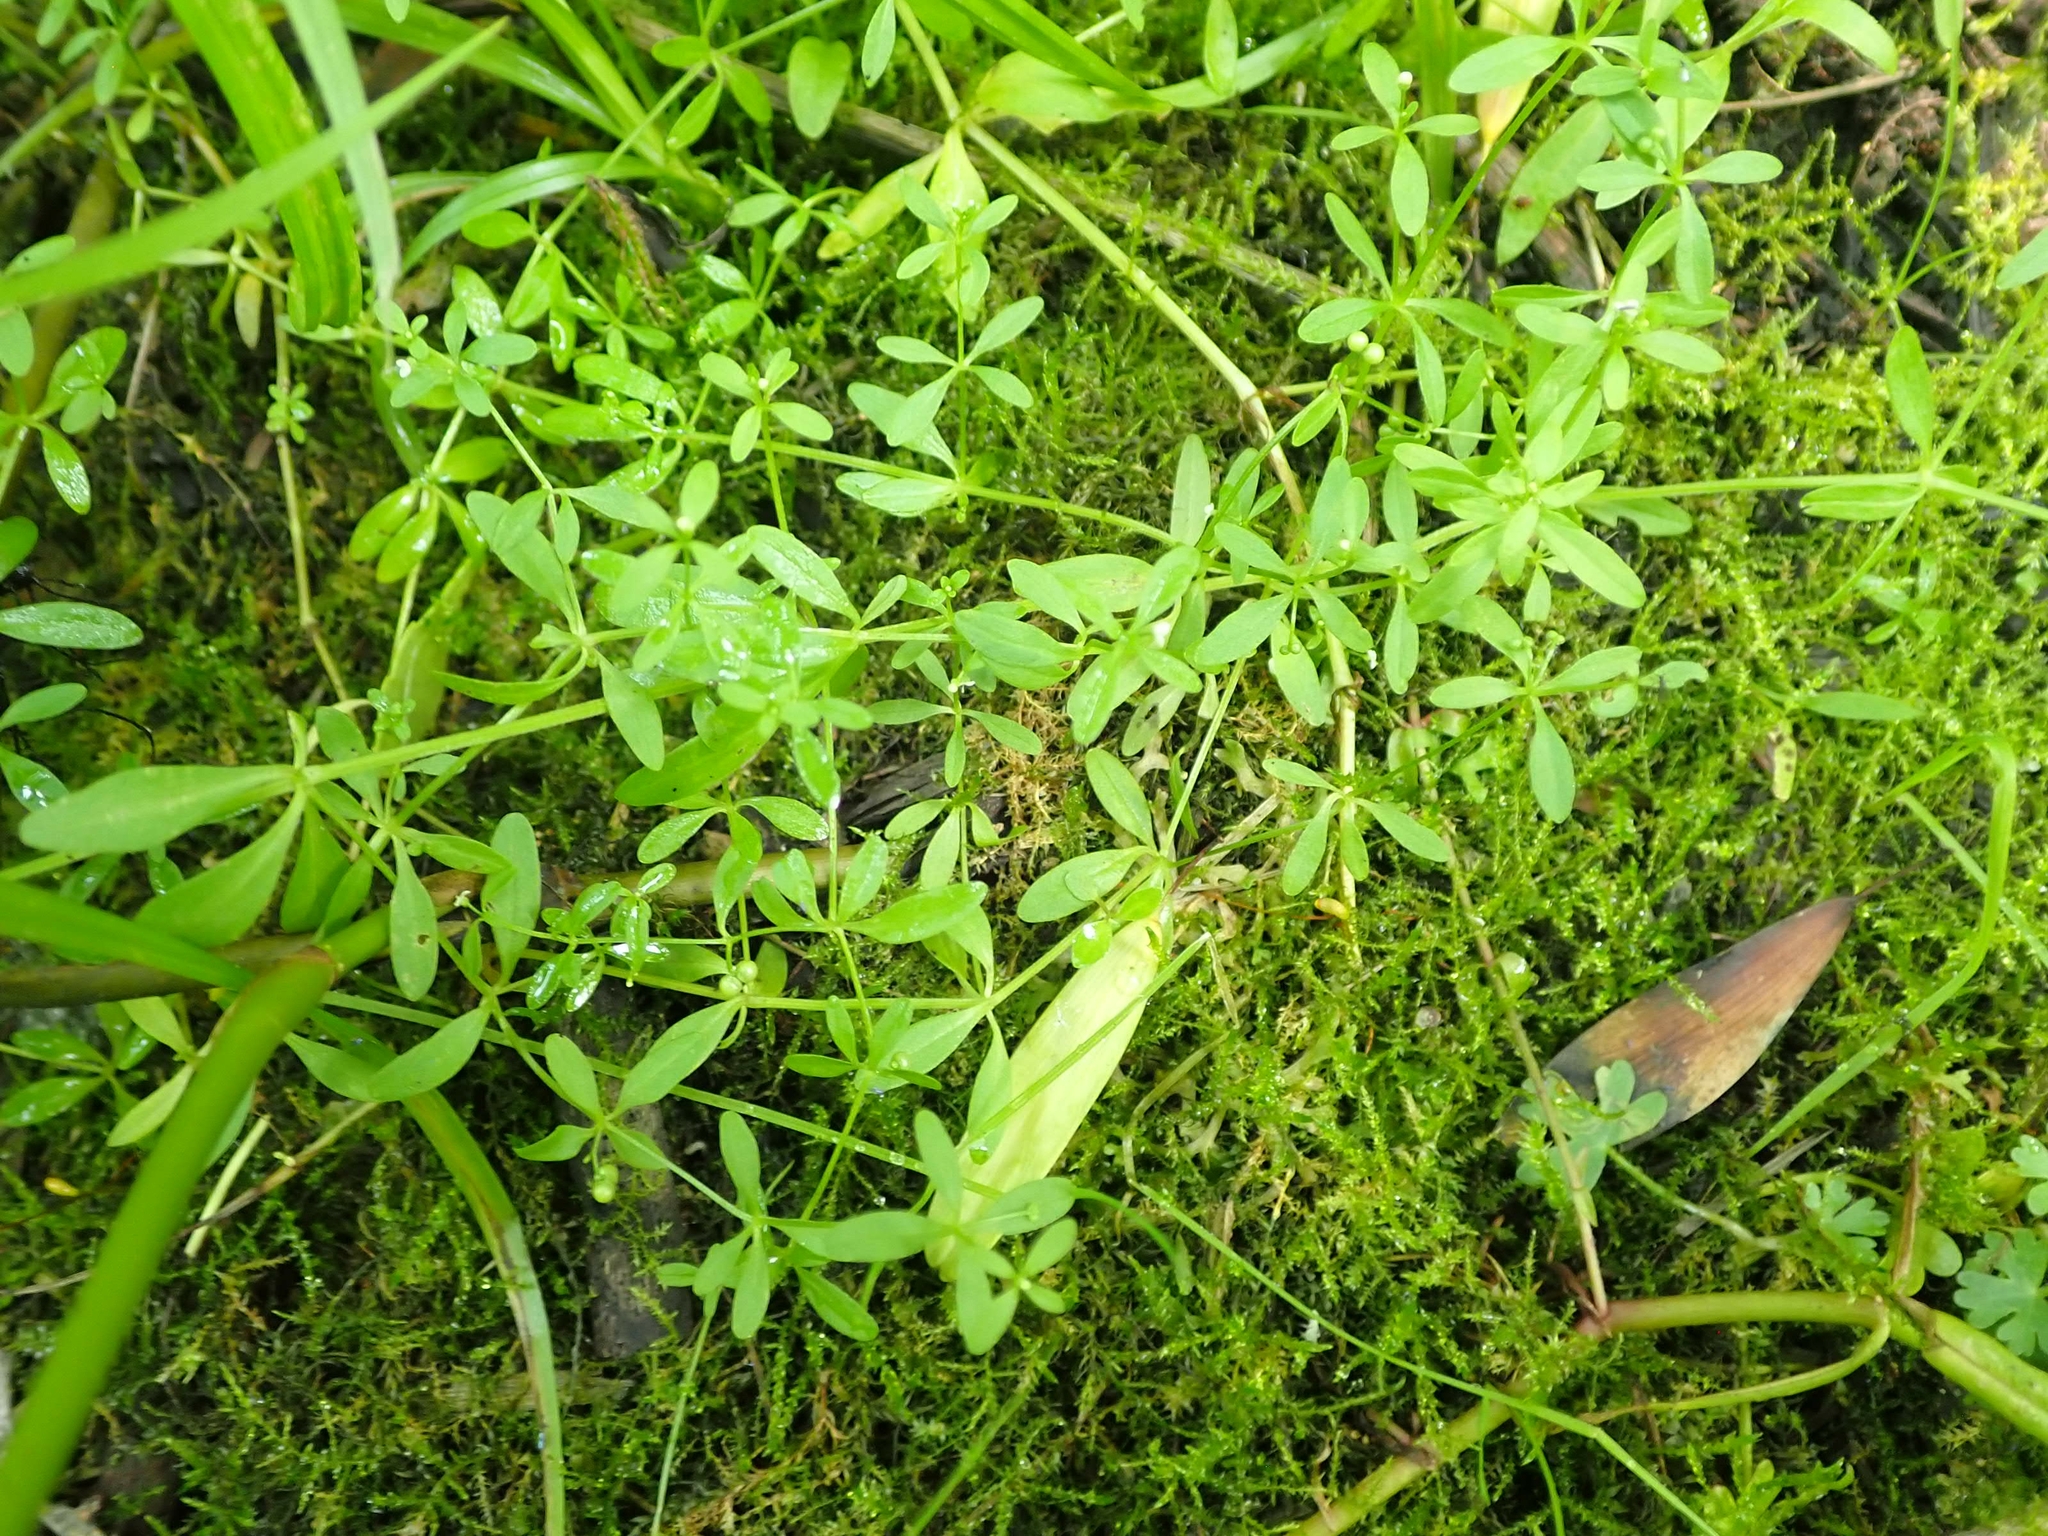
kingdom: Plantae
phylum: Tracheophyta
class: Magnoliopsida
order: Gentianales
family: Rubiaceae
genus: Galium
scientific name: Galium trifidum
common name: Small bedstraw
